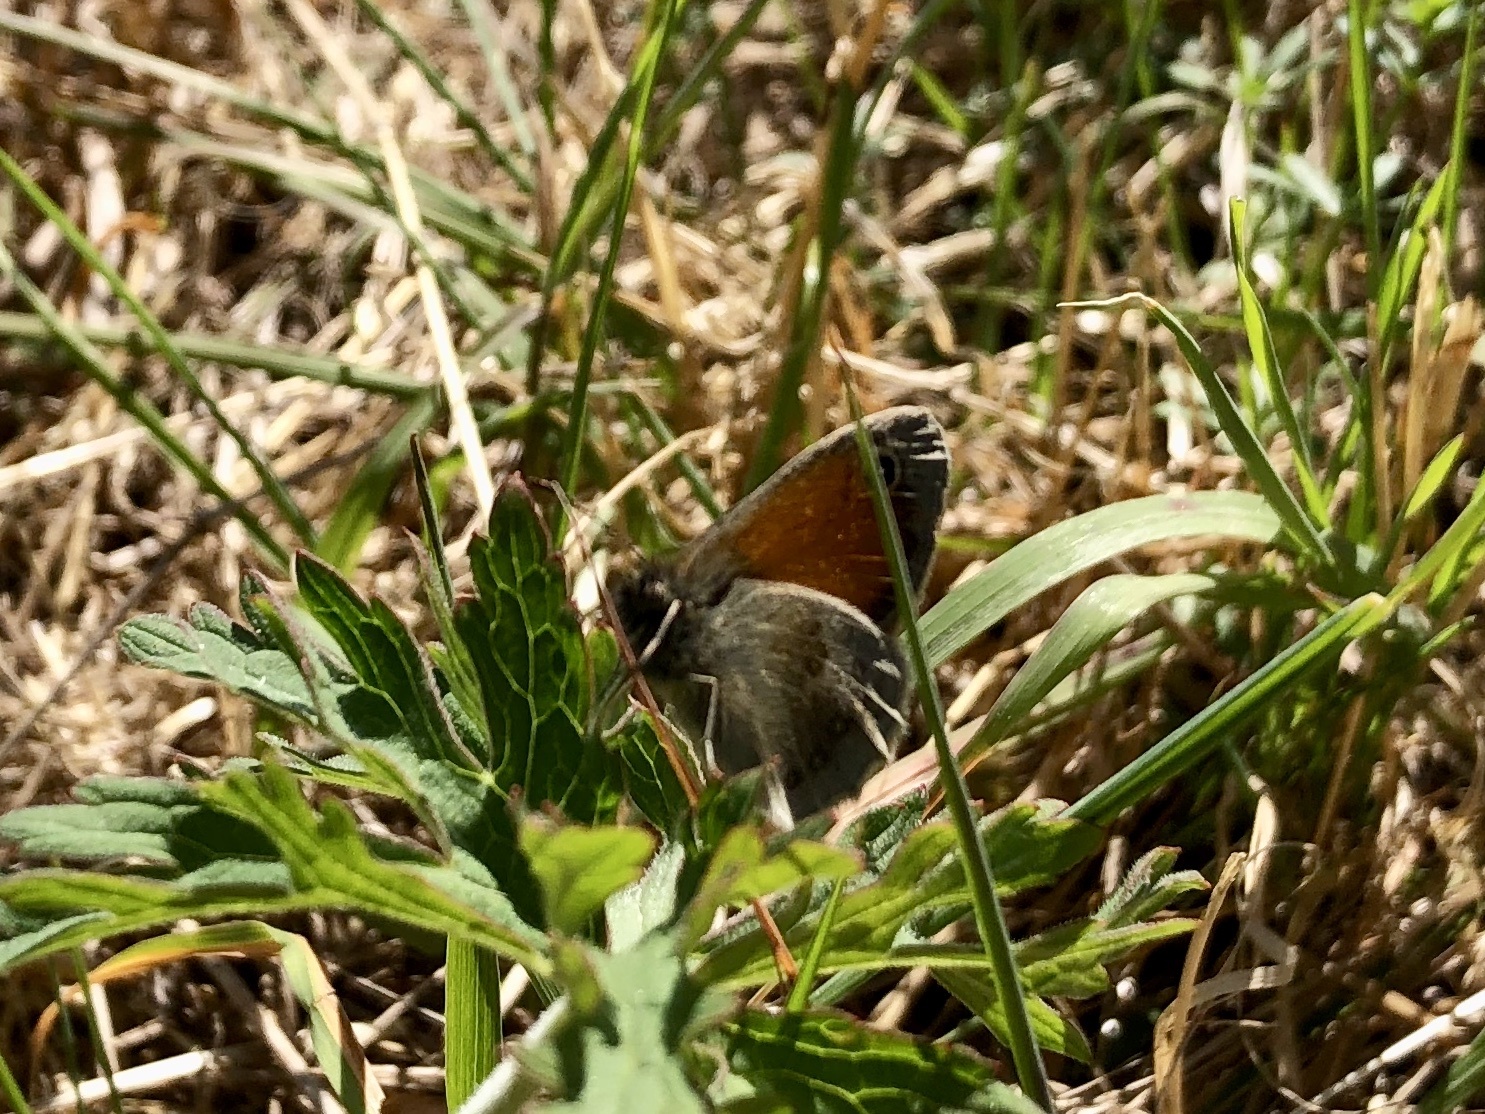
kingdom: Animalia
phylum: Arthropoda
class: Insecta
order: Lepidoptera
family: Nymphalidae
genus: Coenonympha
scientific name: Coenonympha pamphilus
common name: Small heath
